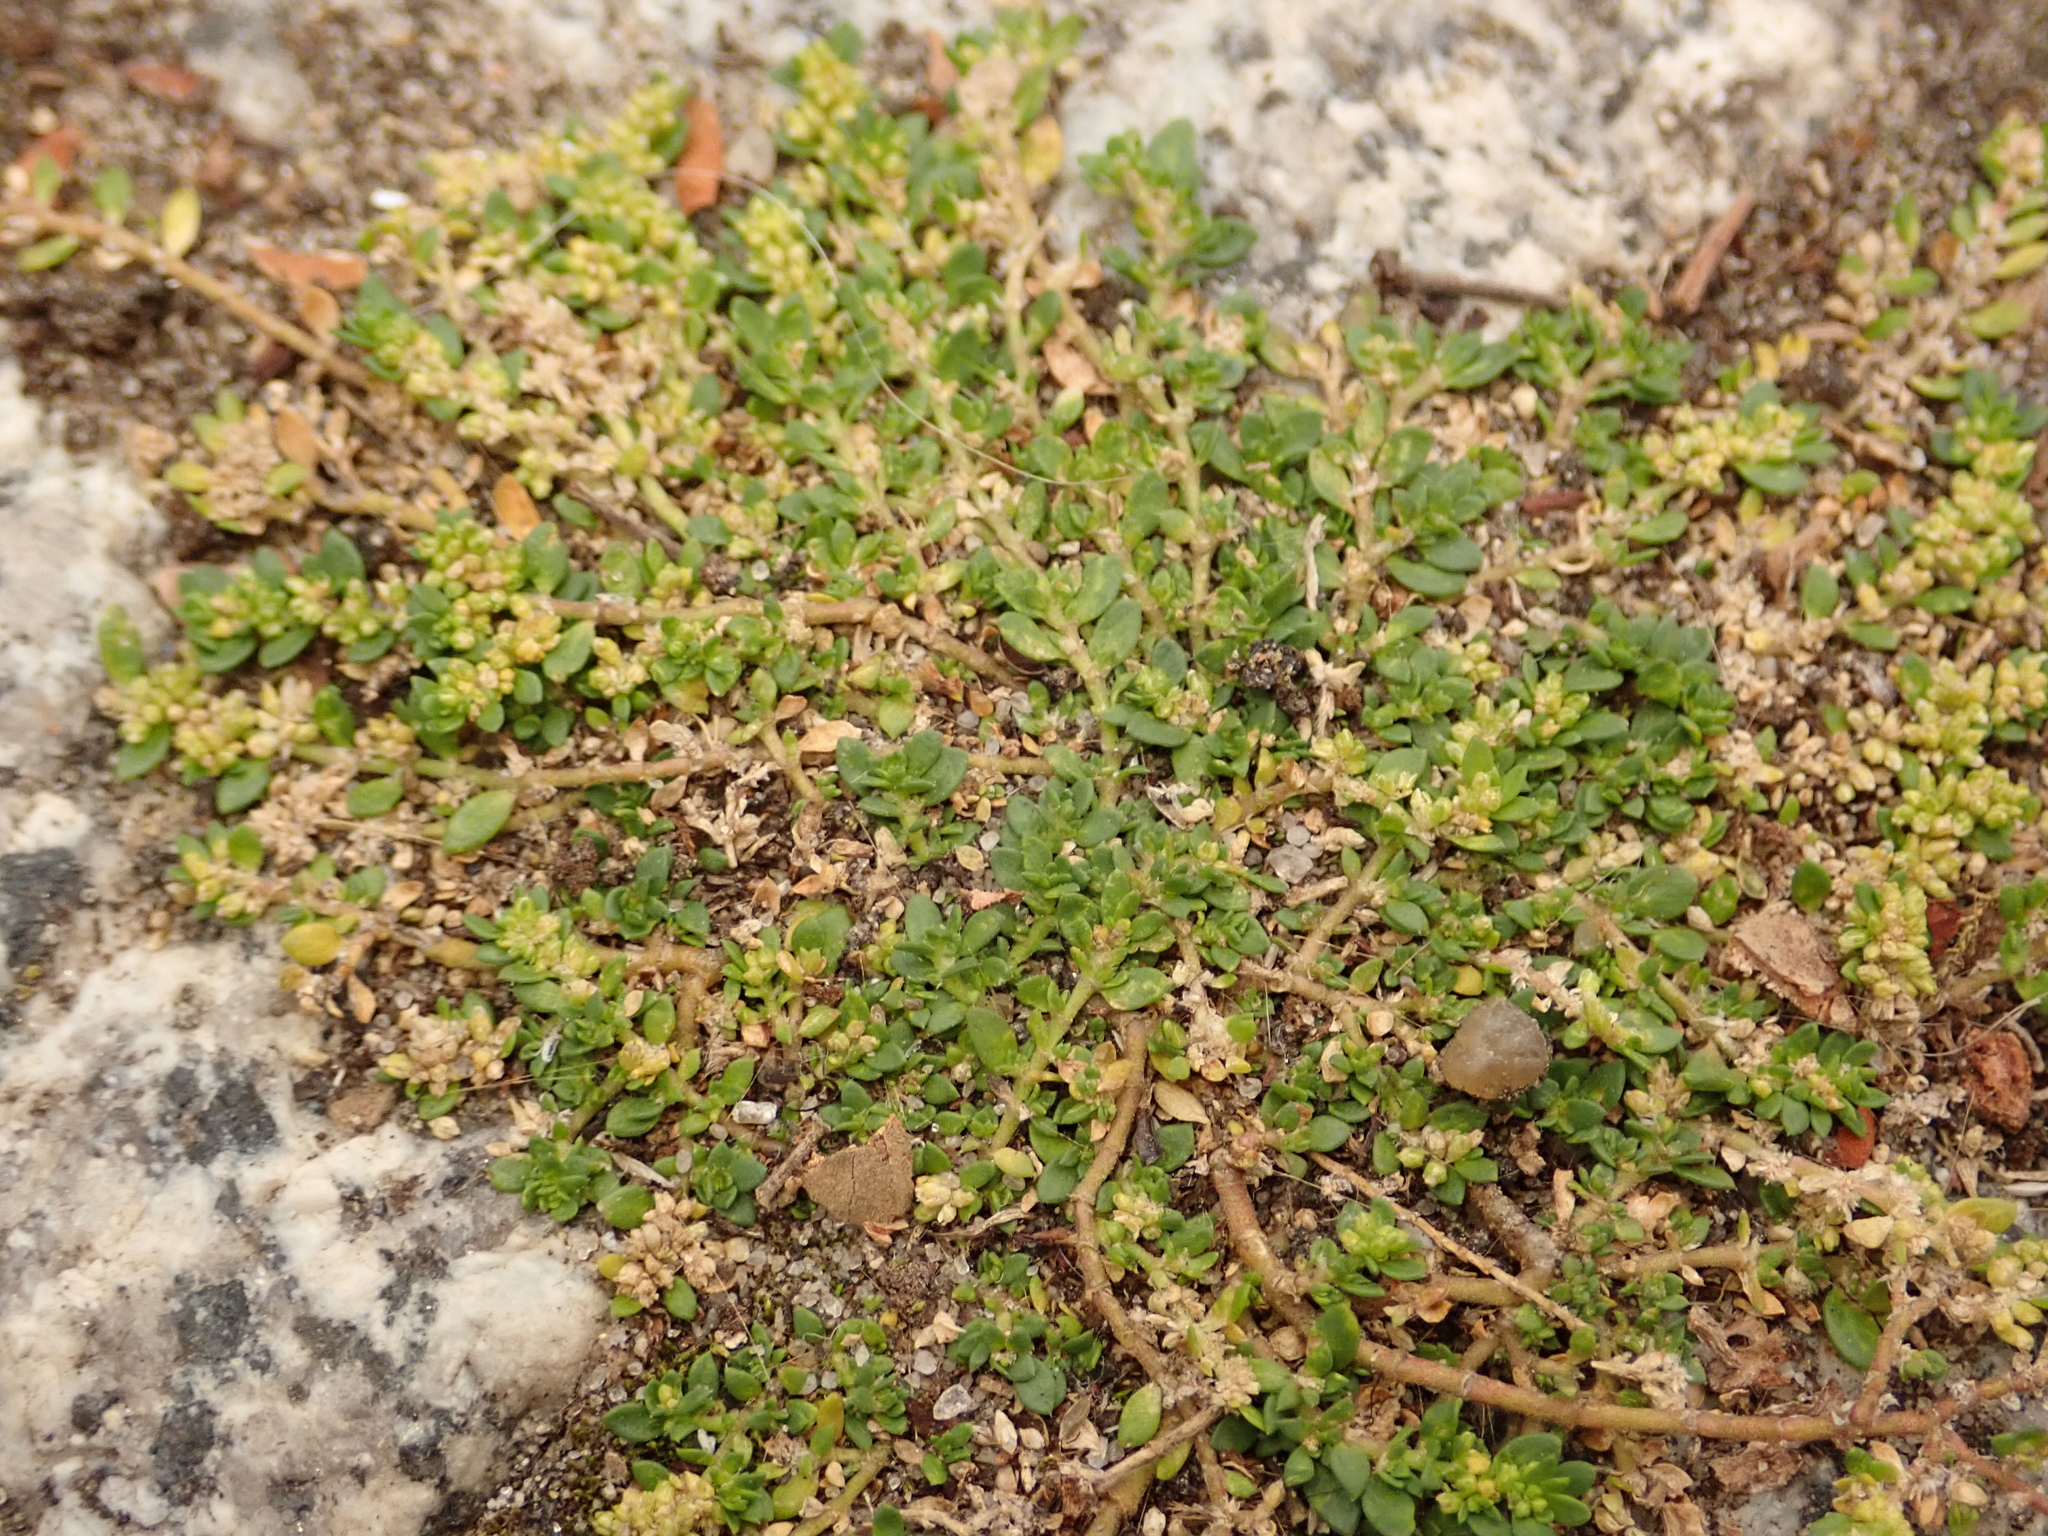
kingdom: Plantae
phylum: Tracheophyta
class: Magnoliopsida
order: Caryophyllales
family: Caryophyllaceae
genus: Herniaria
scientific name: Herniaria glabra
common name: Smooth rupturewort
